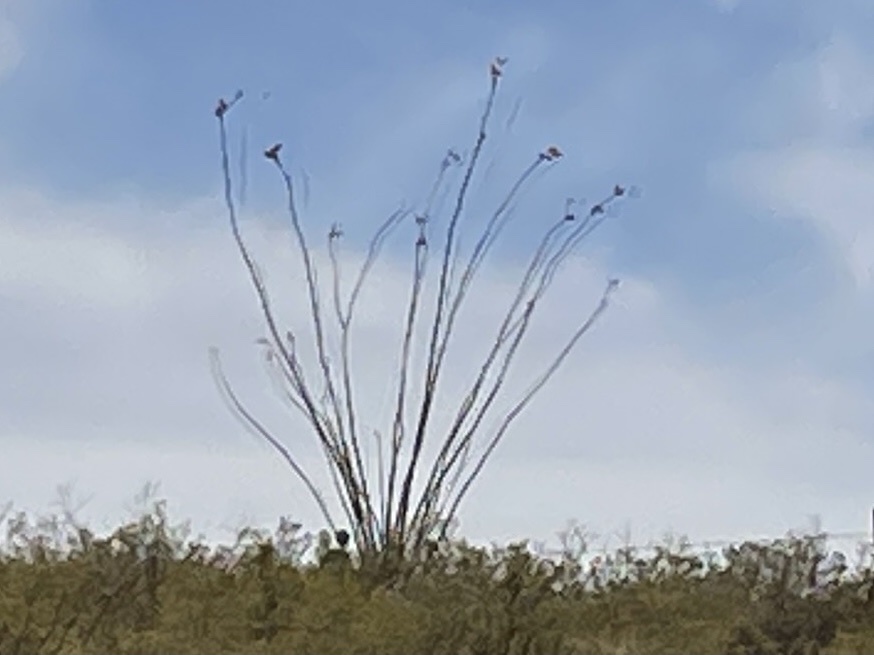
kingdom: Plantae
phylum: Tracheophyta
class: Magnoliopsida
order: Ericales
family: Fouquieriaceae
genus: Fouquieria
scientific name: Fouquieria splendens
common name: Vine-cactus
